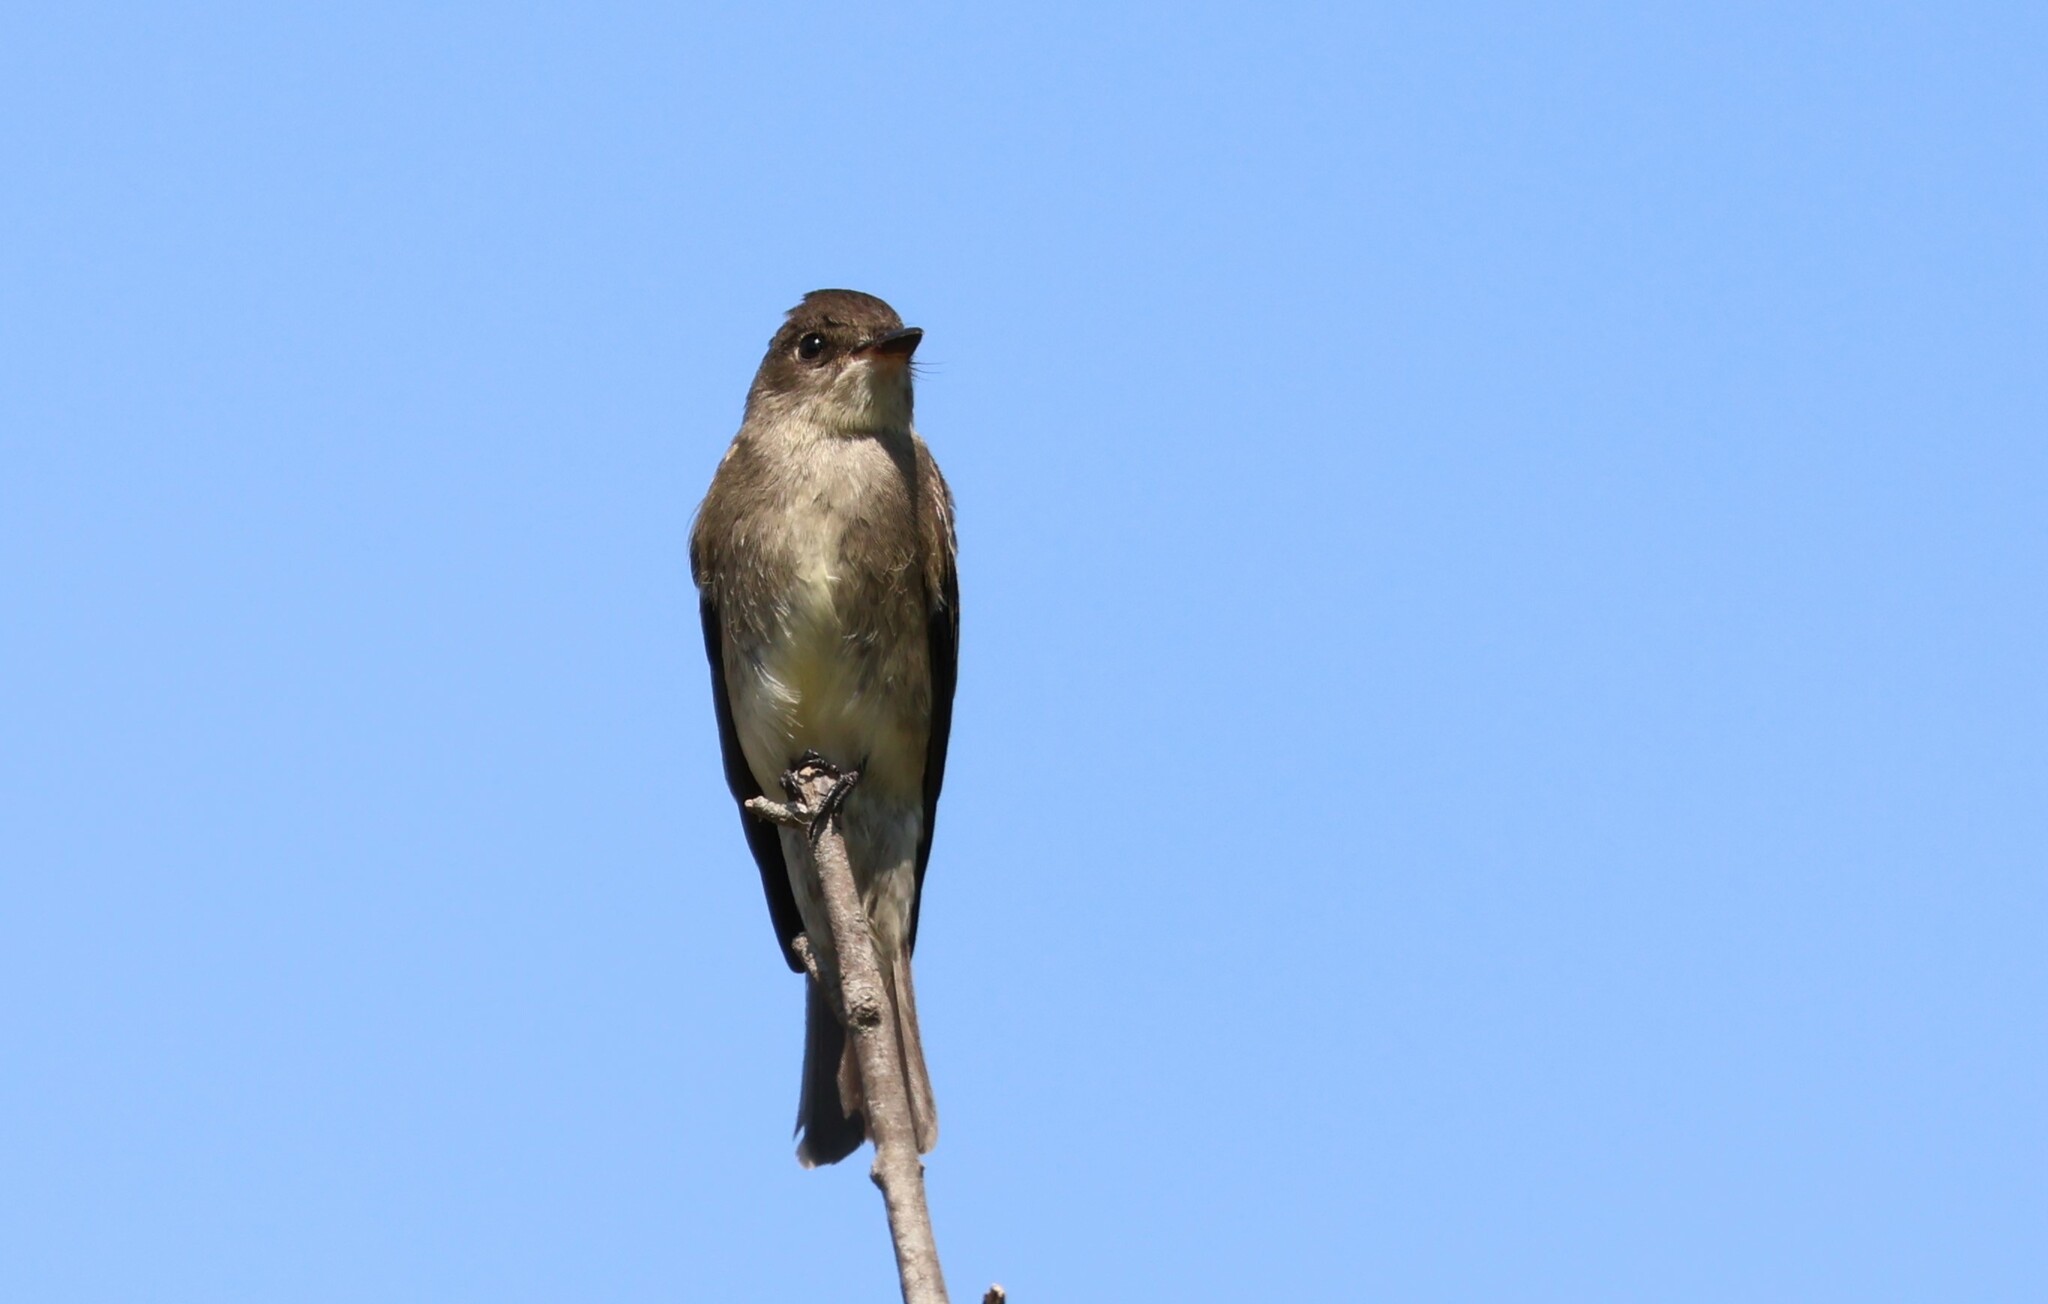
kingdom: Animalia
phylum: Chordata
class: Aves
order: Passeriformes
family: Tyrannidae
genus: Contopus
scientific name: Contopus sordidulus
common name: Western wood-pewee
